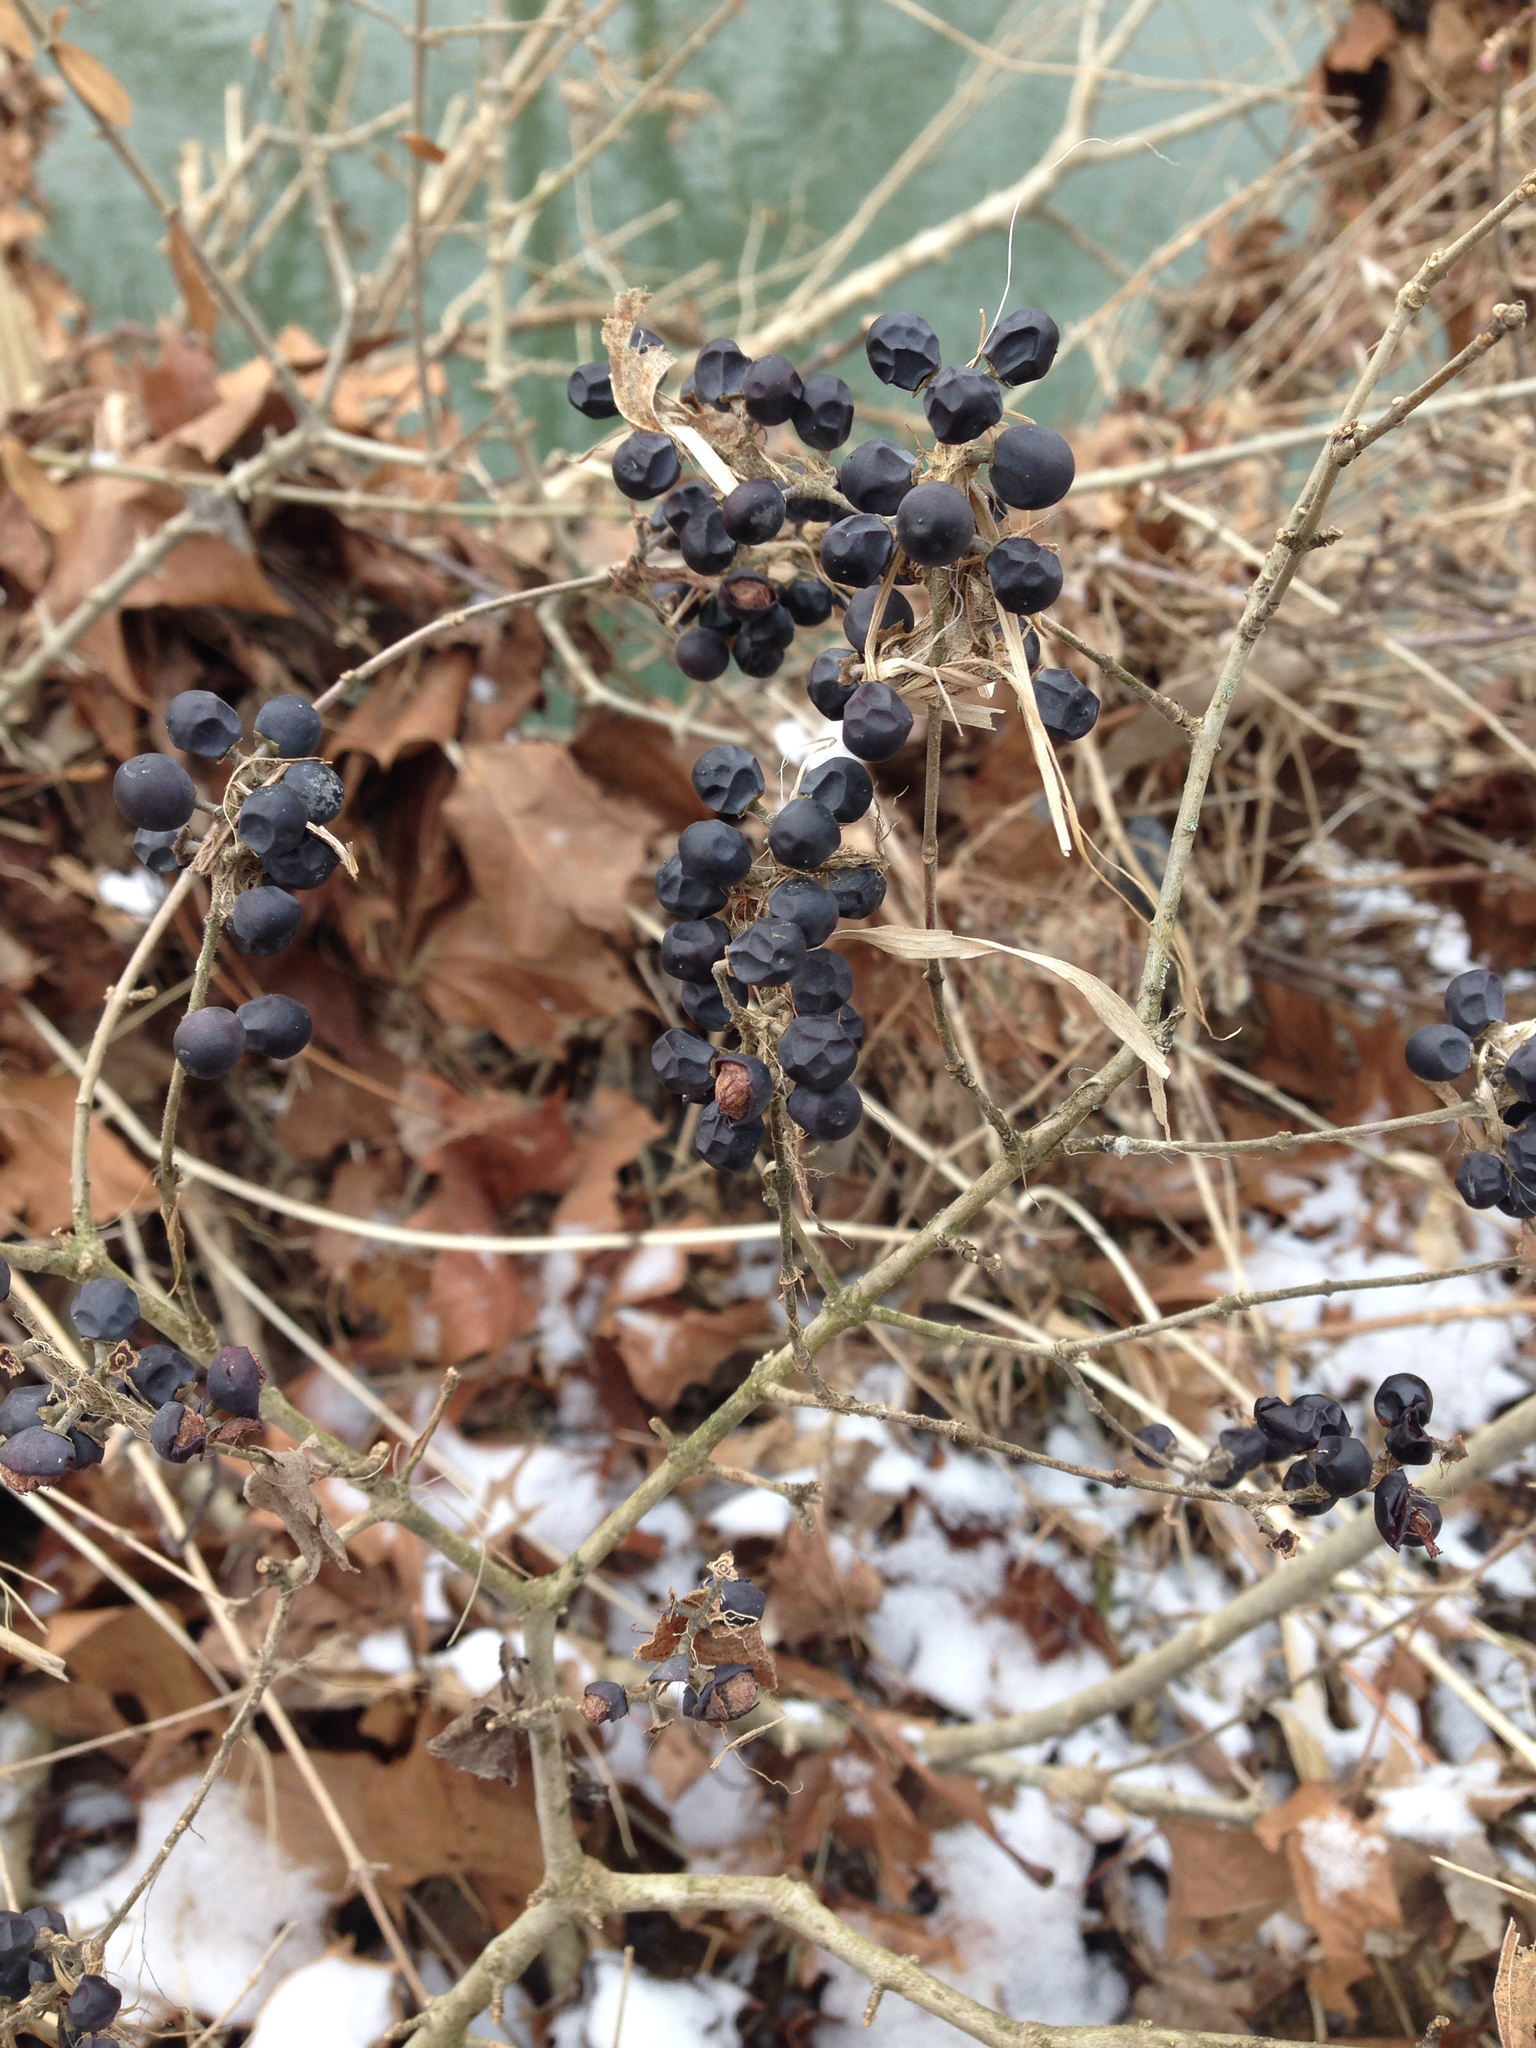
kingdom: Plantae
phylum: Tracheophyta
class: Magnoliopsida
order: Lamiales
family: Oleaceae
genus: Ligustrum
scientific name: Ligustrum obtusifolium
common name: Border privet
